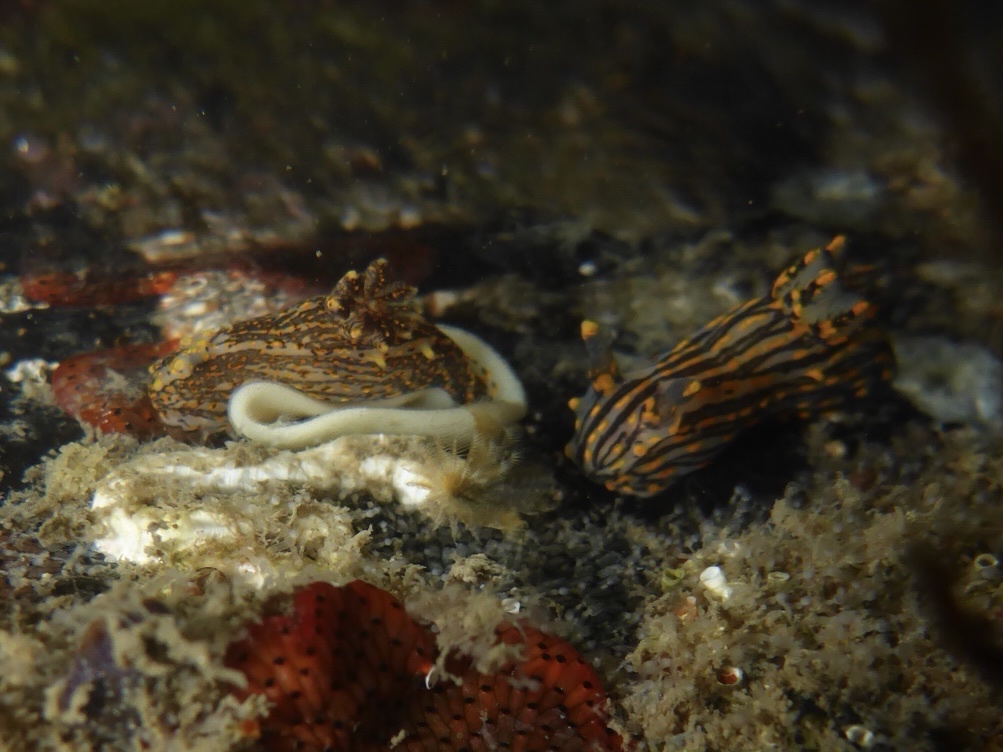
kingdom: Animalia
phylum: Mollusca
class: Gastropoda
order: Nudibranchia
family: Polyceridae
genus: Polycera
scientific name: Polycera atra
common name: Orange-spike polycera
